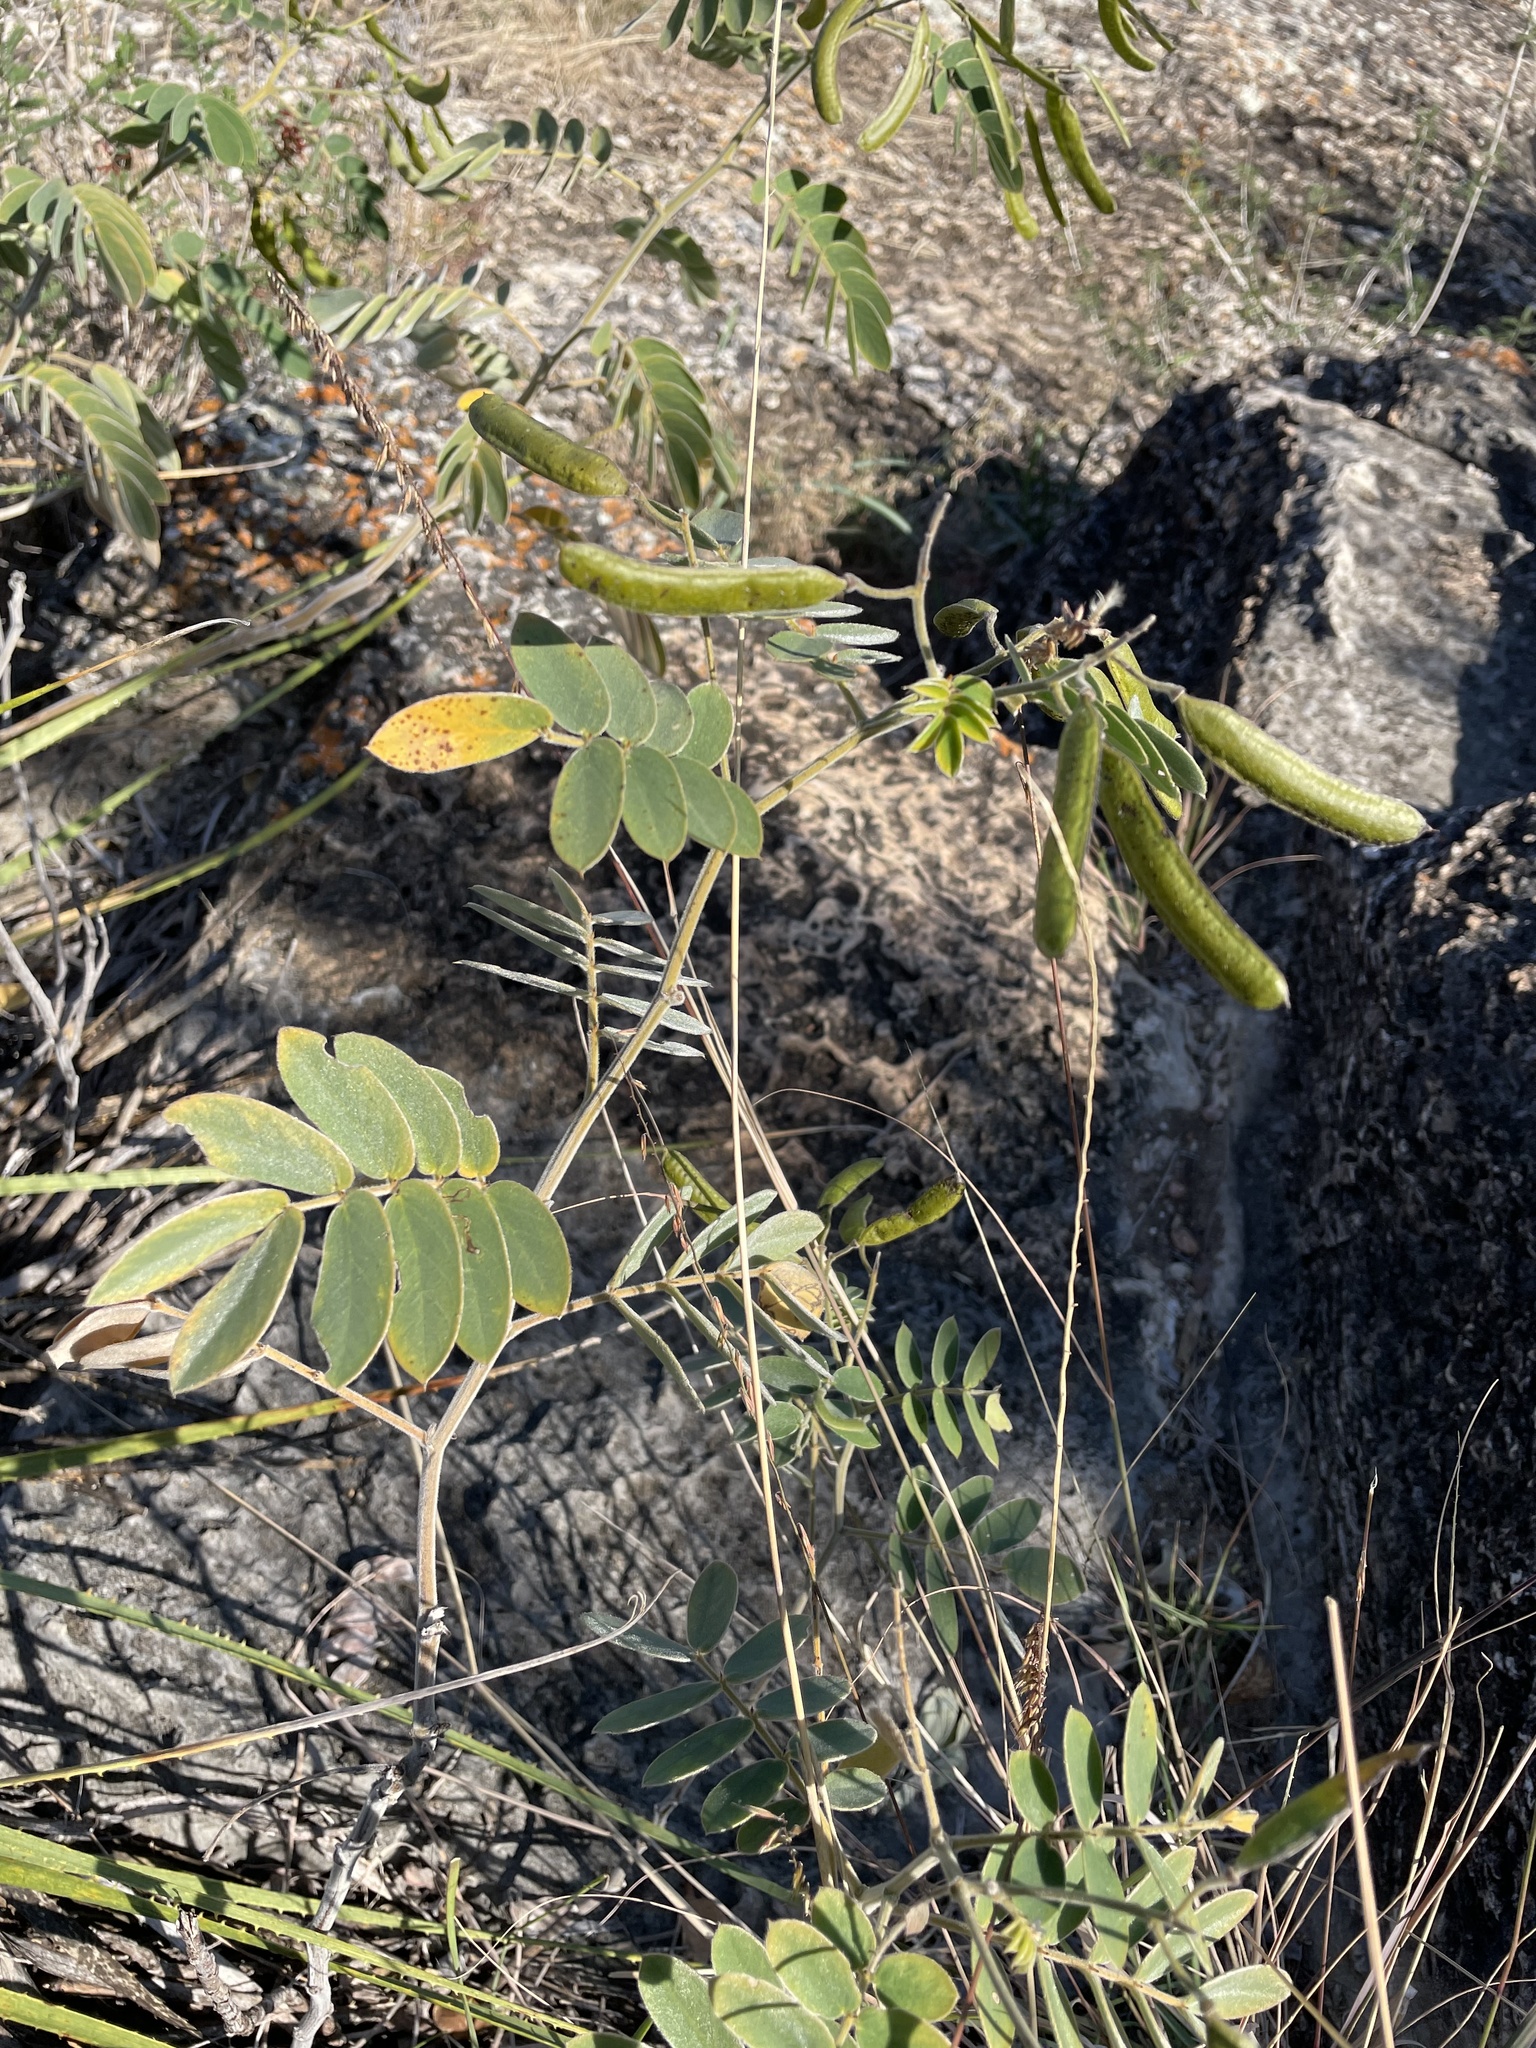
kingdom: Plantae
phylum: Tracheophyta
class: Magnoliopsida
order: Fabales
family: Fabaceae
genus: Senna
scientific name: Senna lindheimeriana
